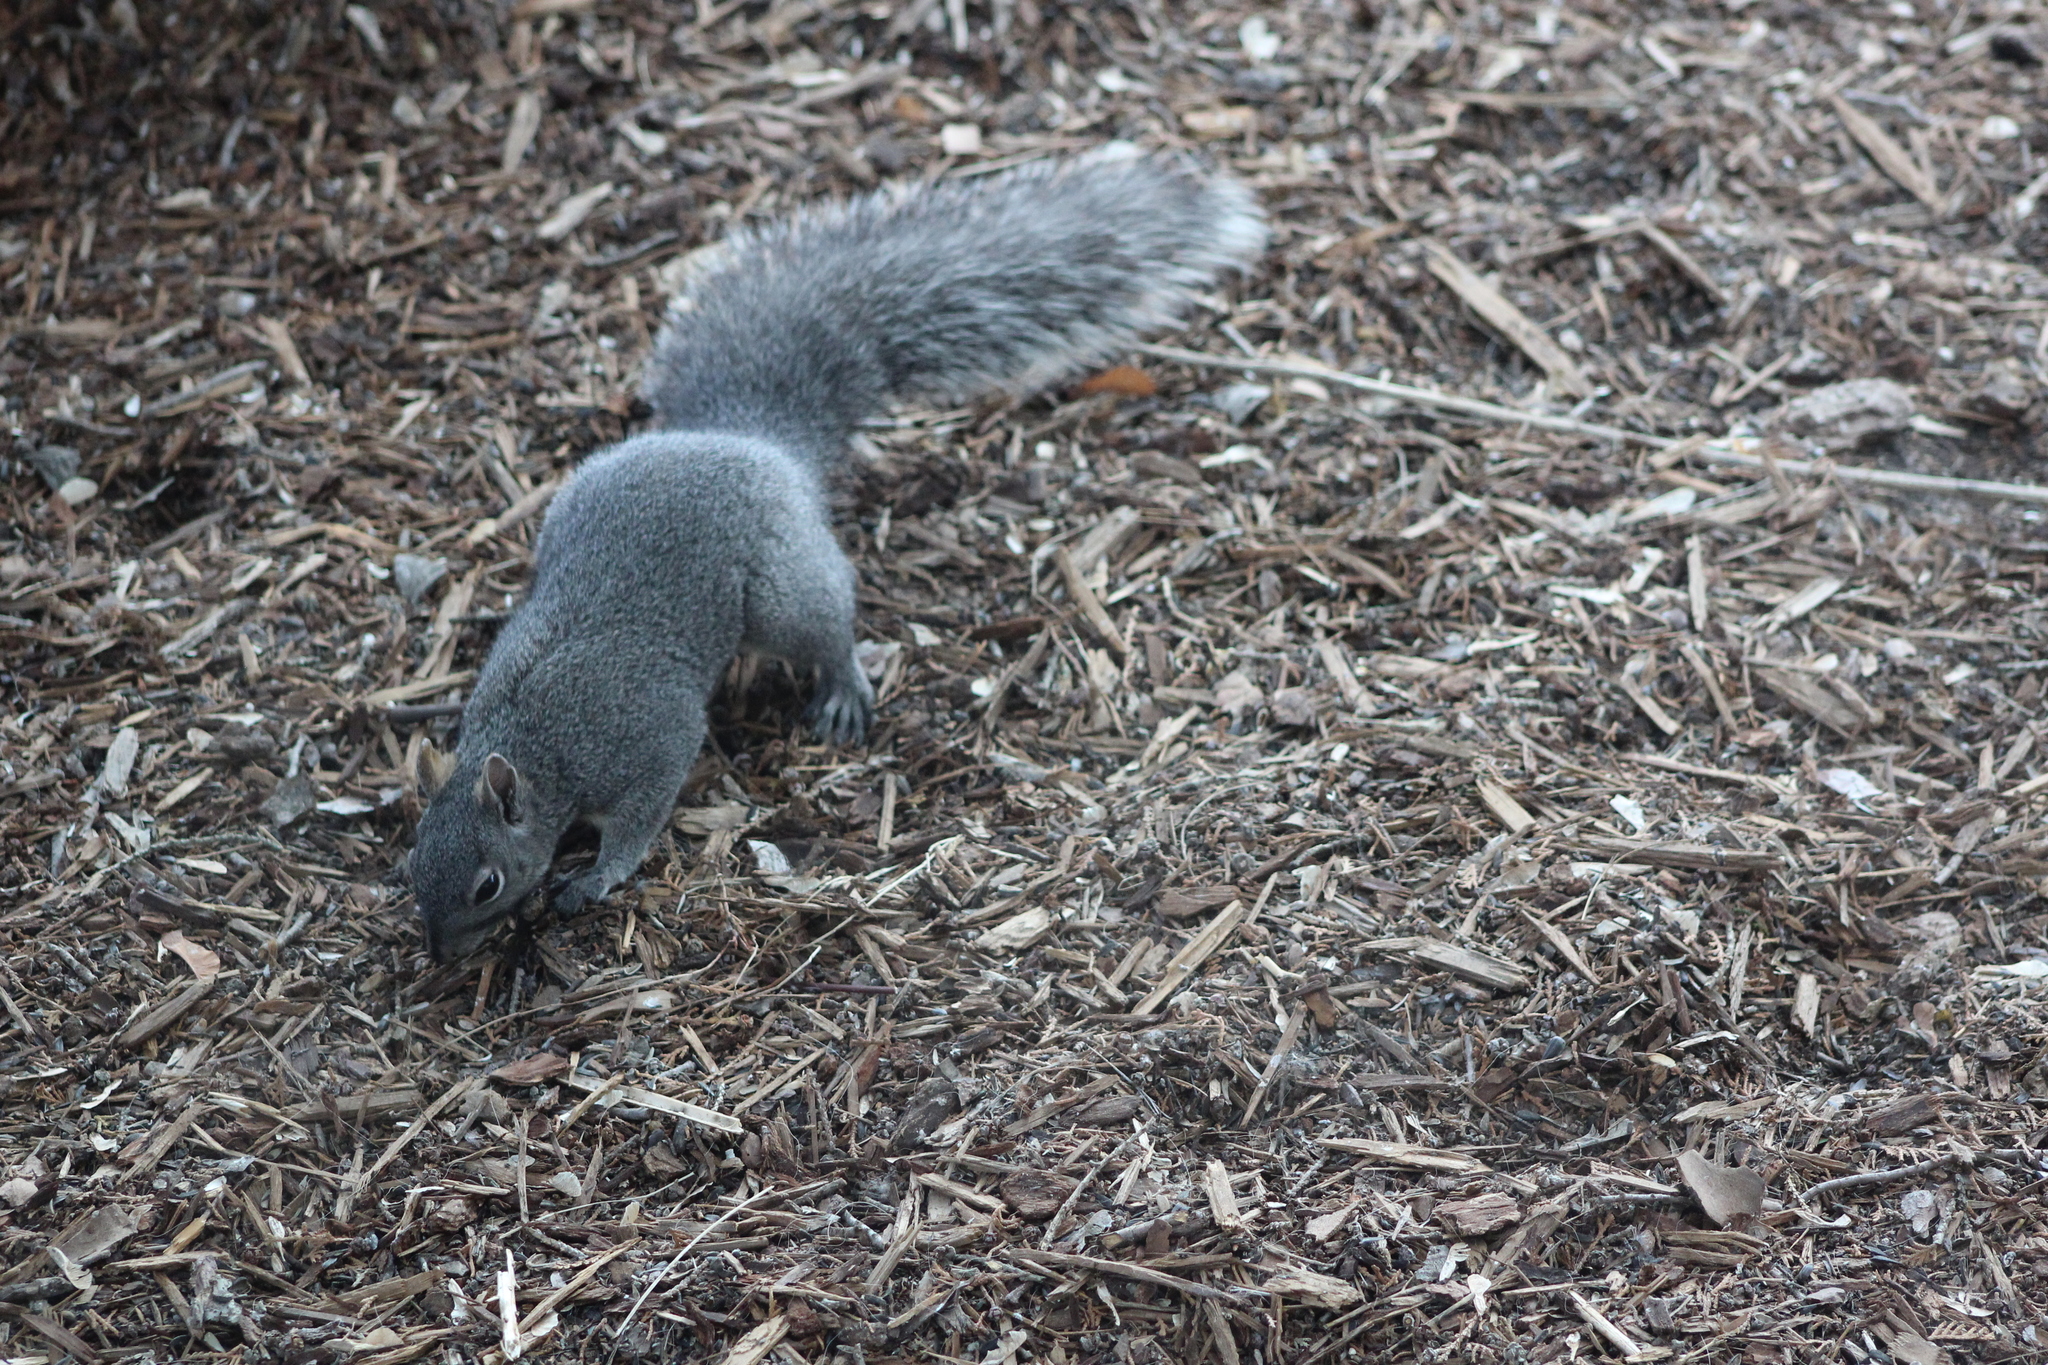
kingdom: Animalia
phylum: Chordata
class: Mammalia
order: Rodentia
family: Sciuridae
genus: Sciurus
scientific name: Sciurus griseus
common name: Western gray squirrel
